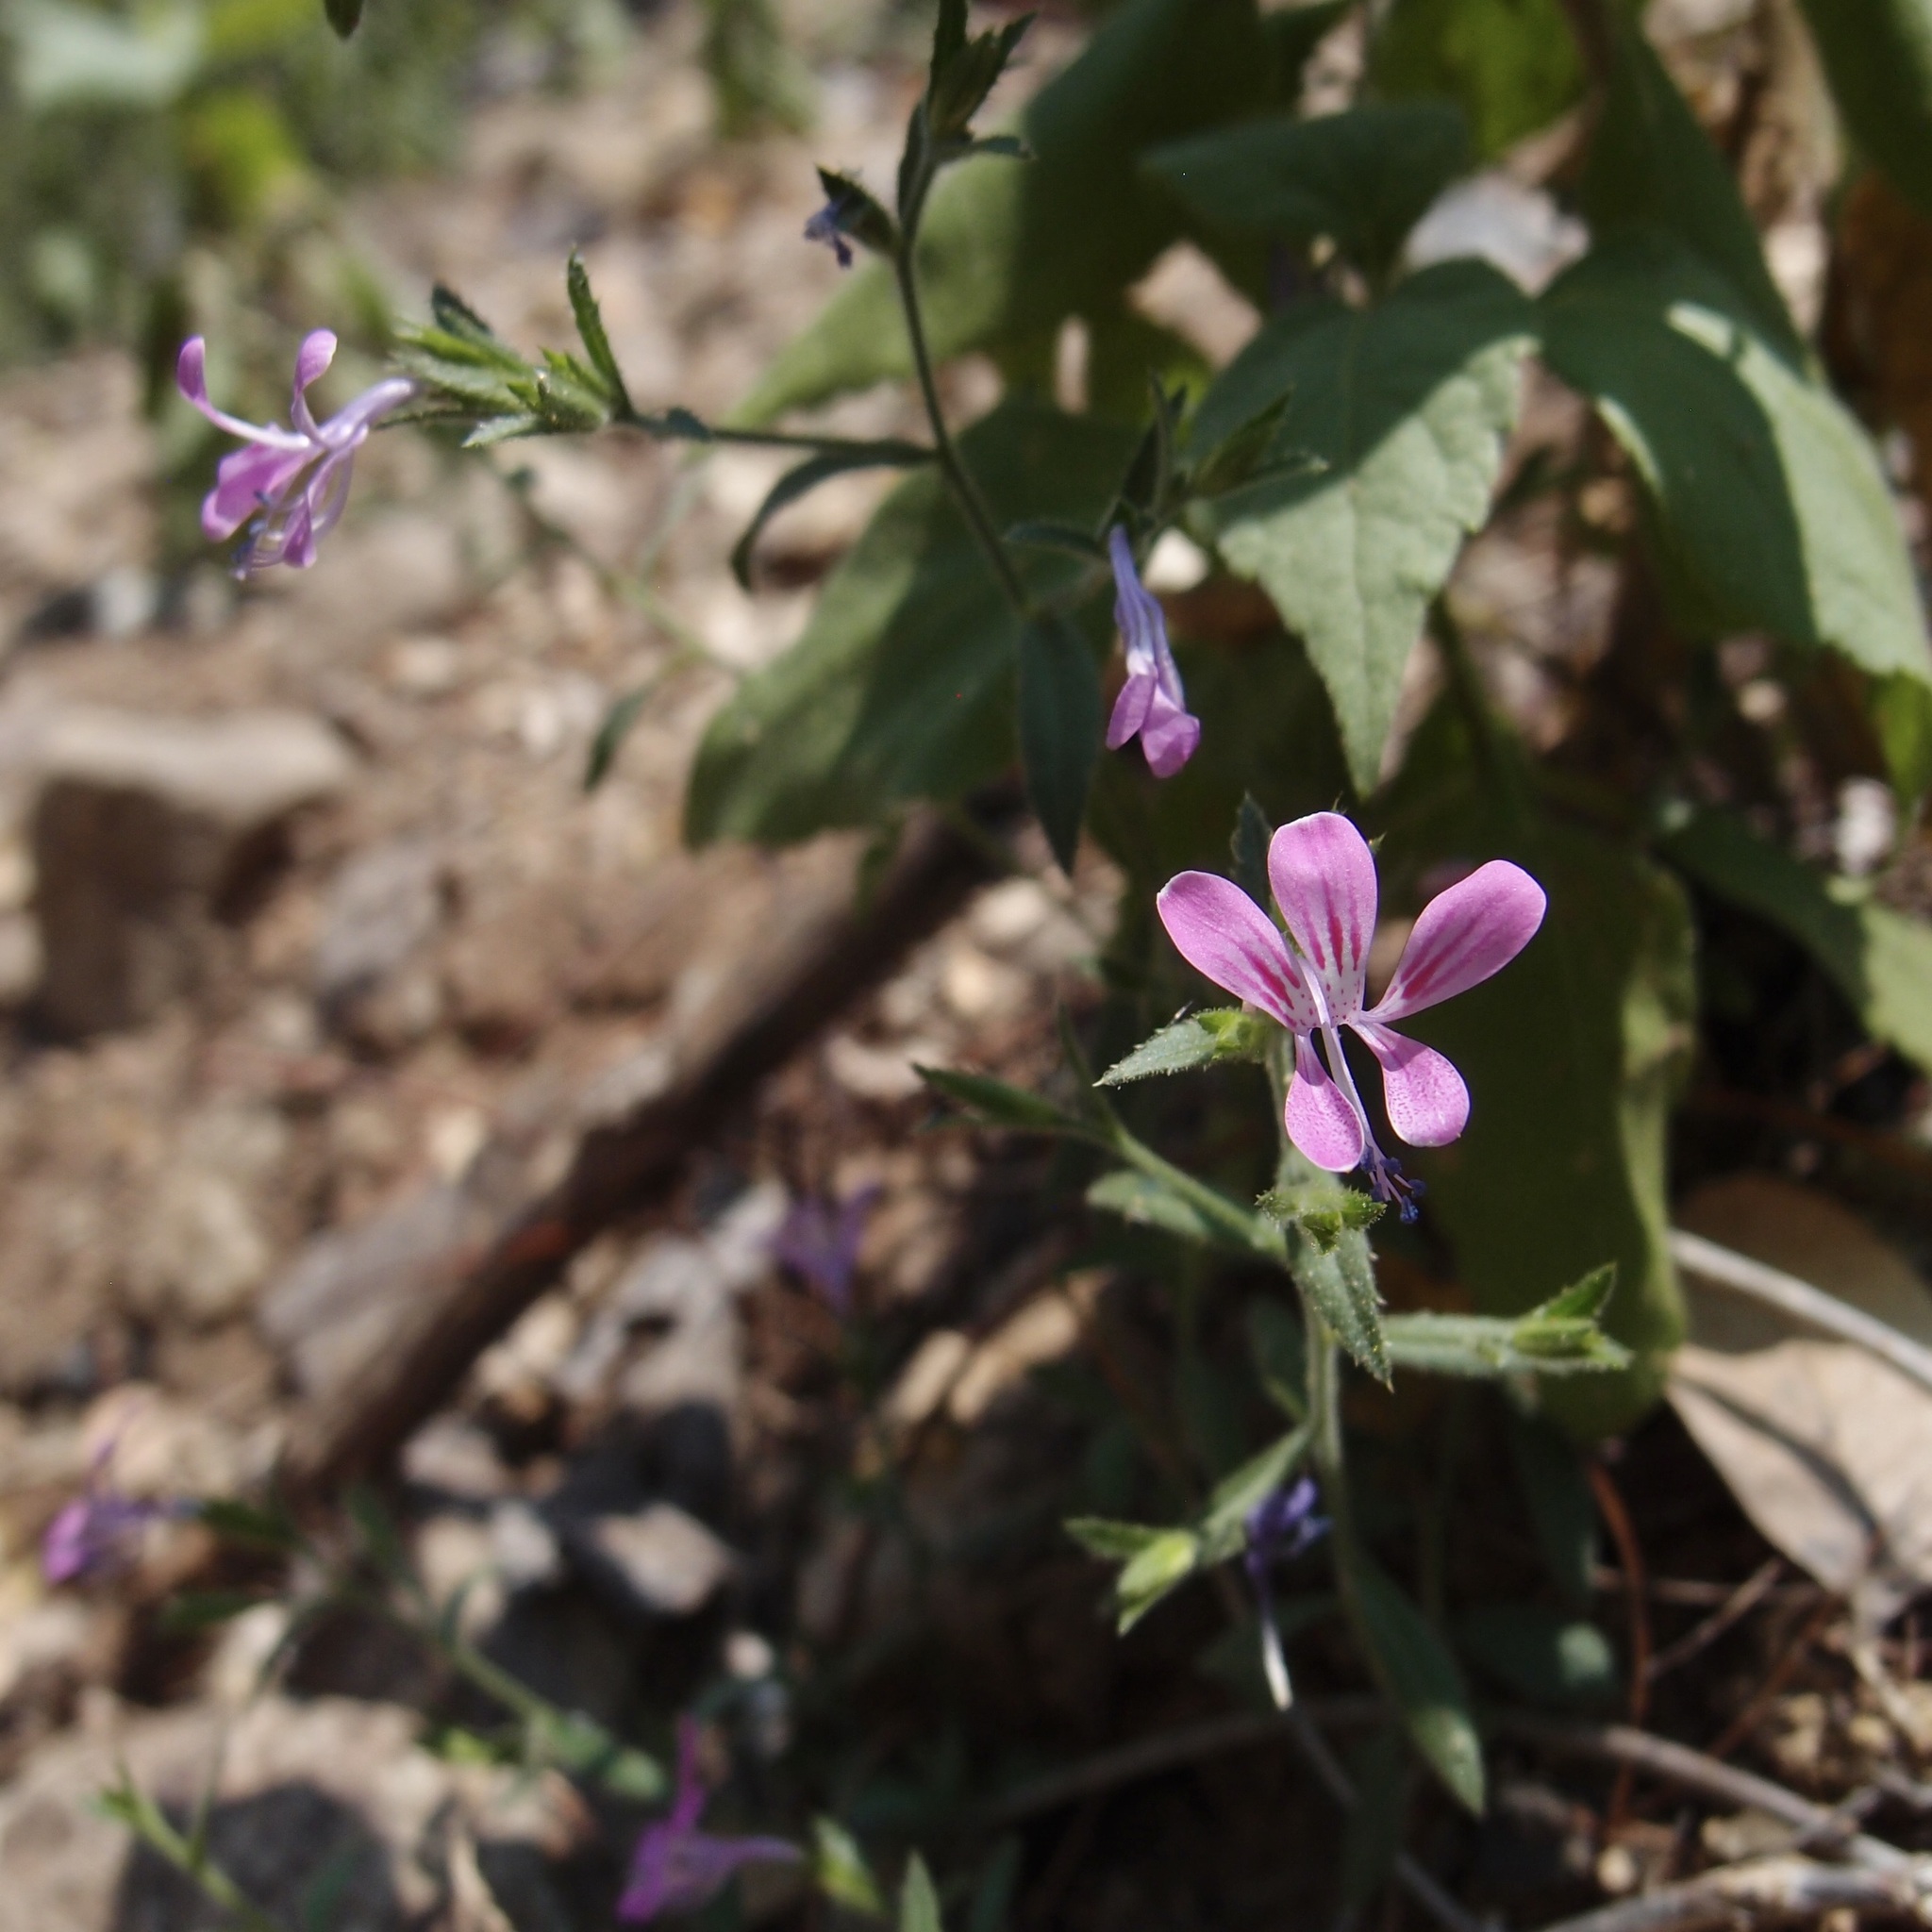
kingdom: Plantae
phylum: Tracheophyta
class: Magnoliopsida
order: Ericales
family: Polemoniaceae
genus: Loeselia
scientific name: Loeselia glandulosa
